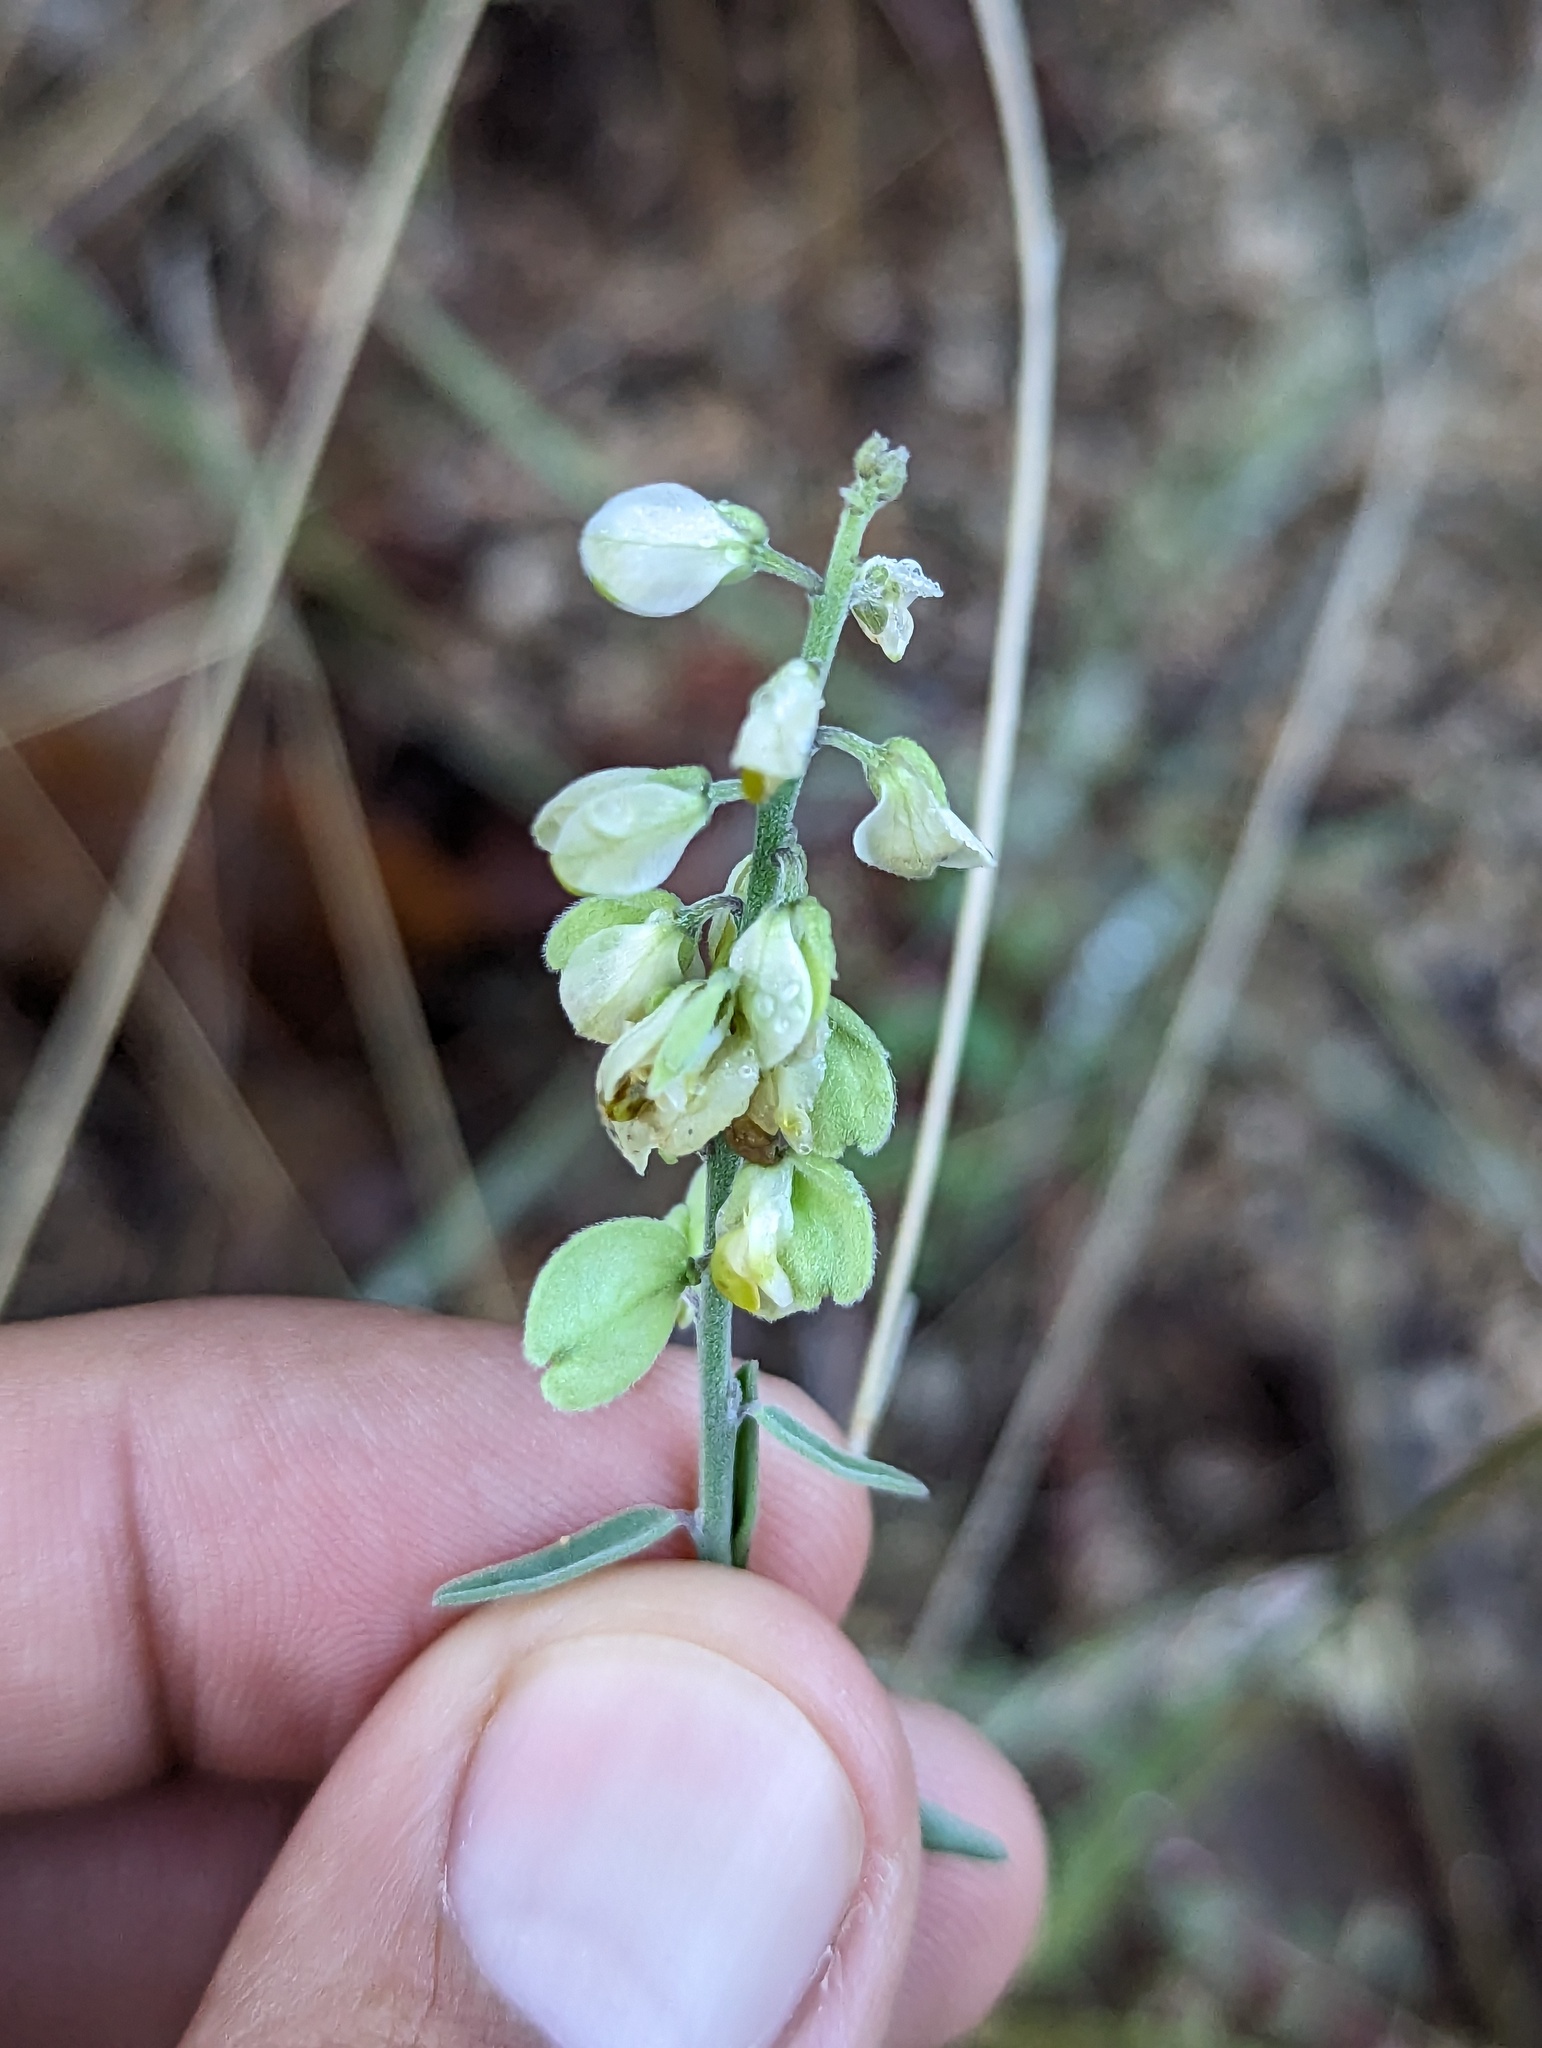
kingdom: Plantae
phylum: Tracheophyta
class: Magnoliopsida
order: Fabales
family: Polygalaceae
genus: Polygala
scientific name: Polygala magdalenae
